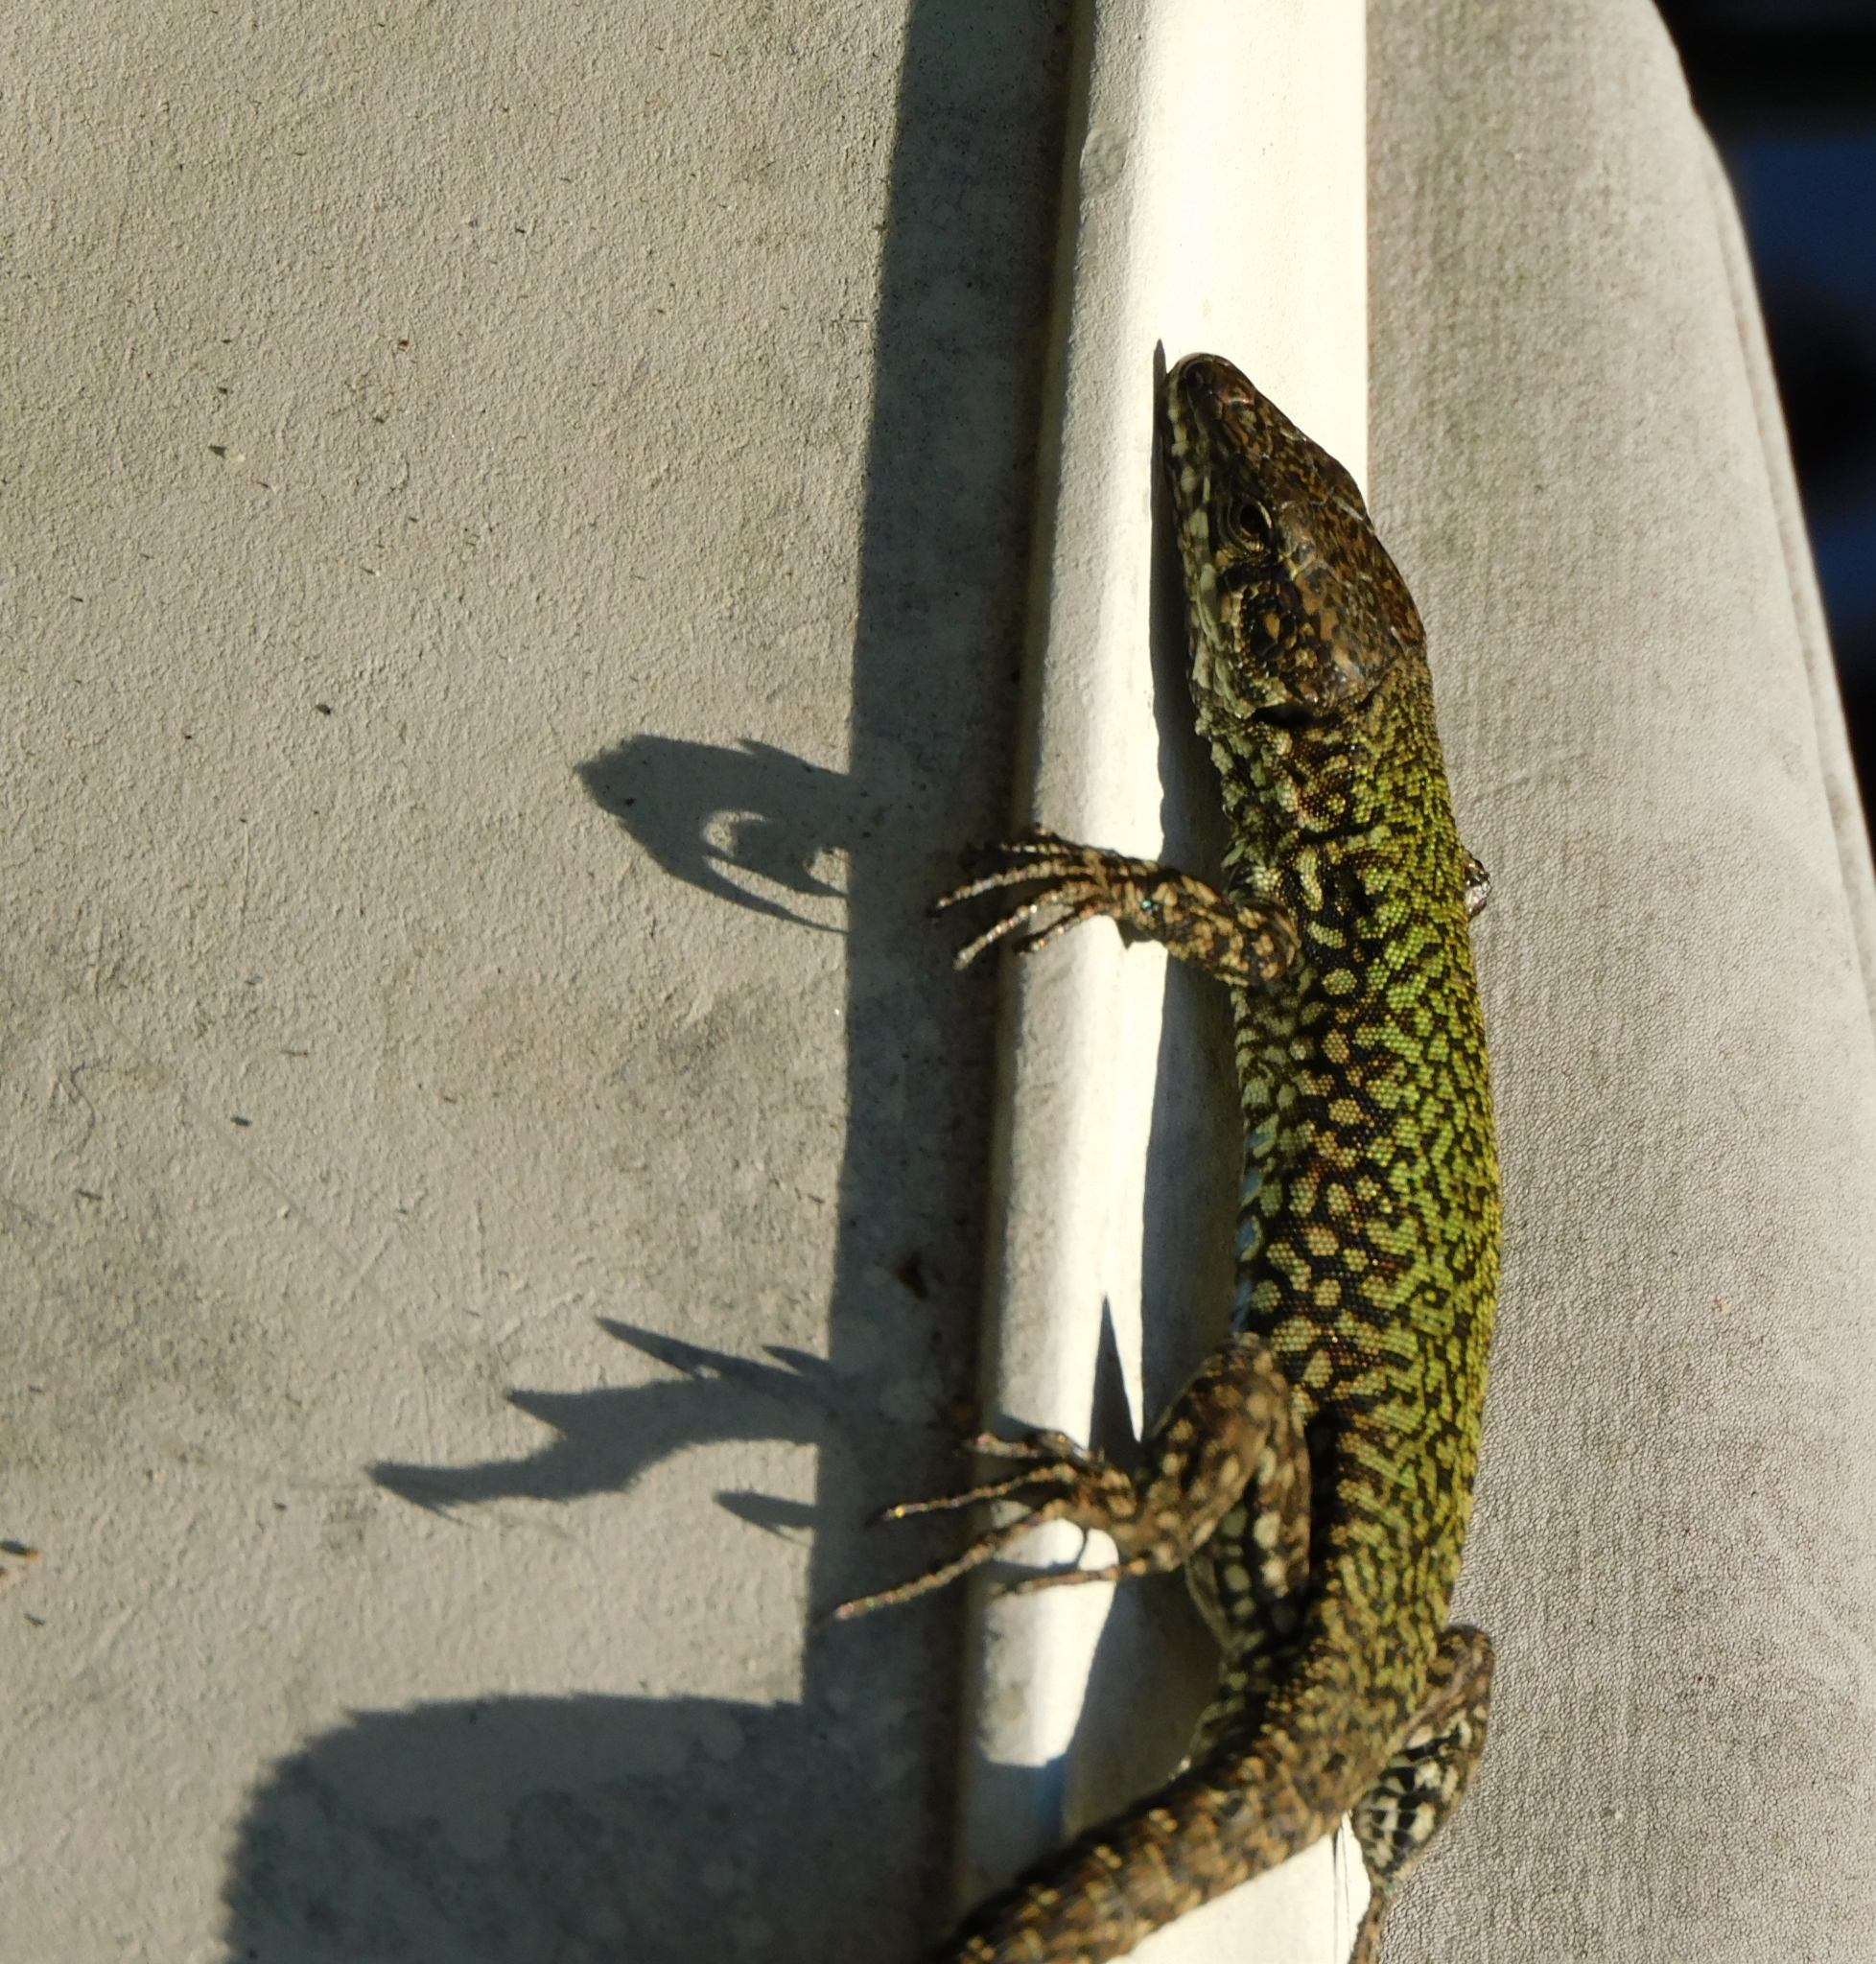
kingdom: Animalia
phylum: Chordata
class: Squamata
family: Lacertidae
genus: Podarcis
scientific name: Podarcis muralis
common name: Common wall lizard
